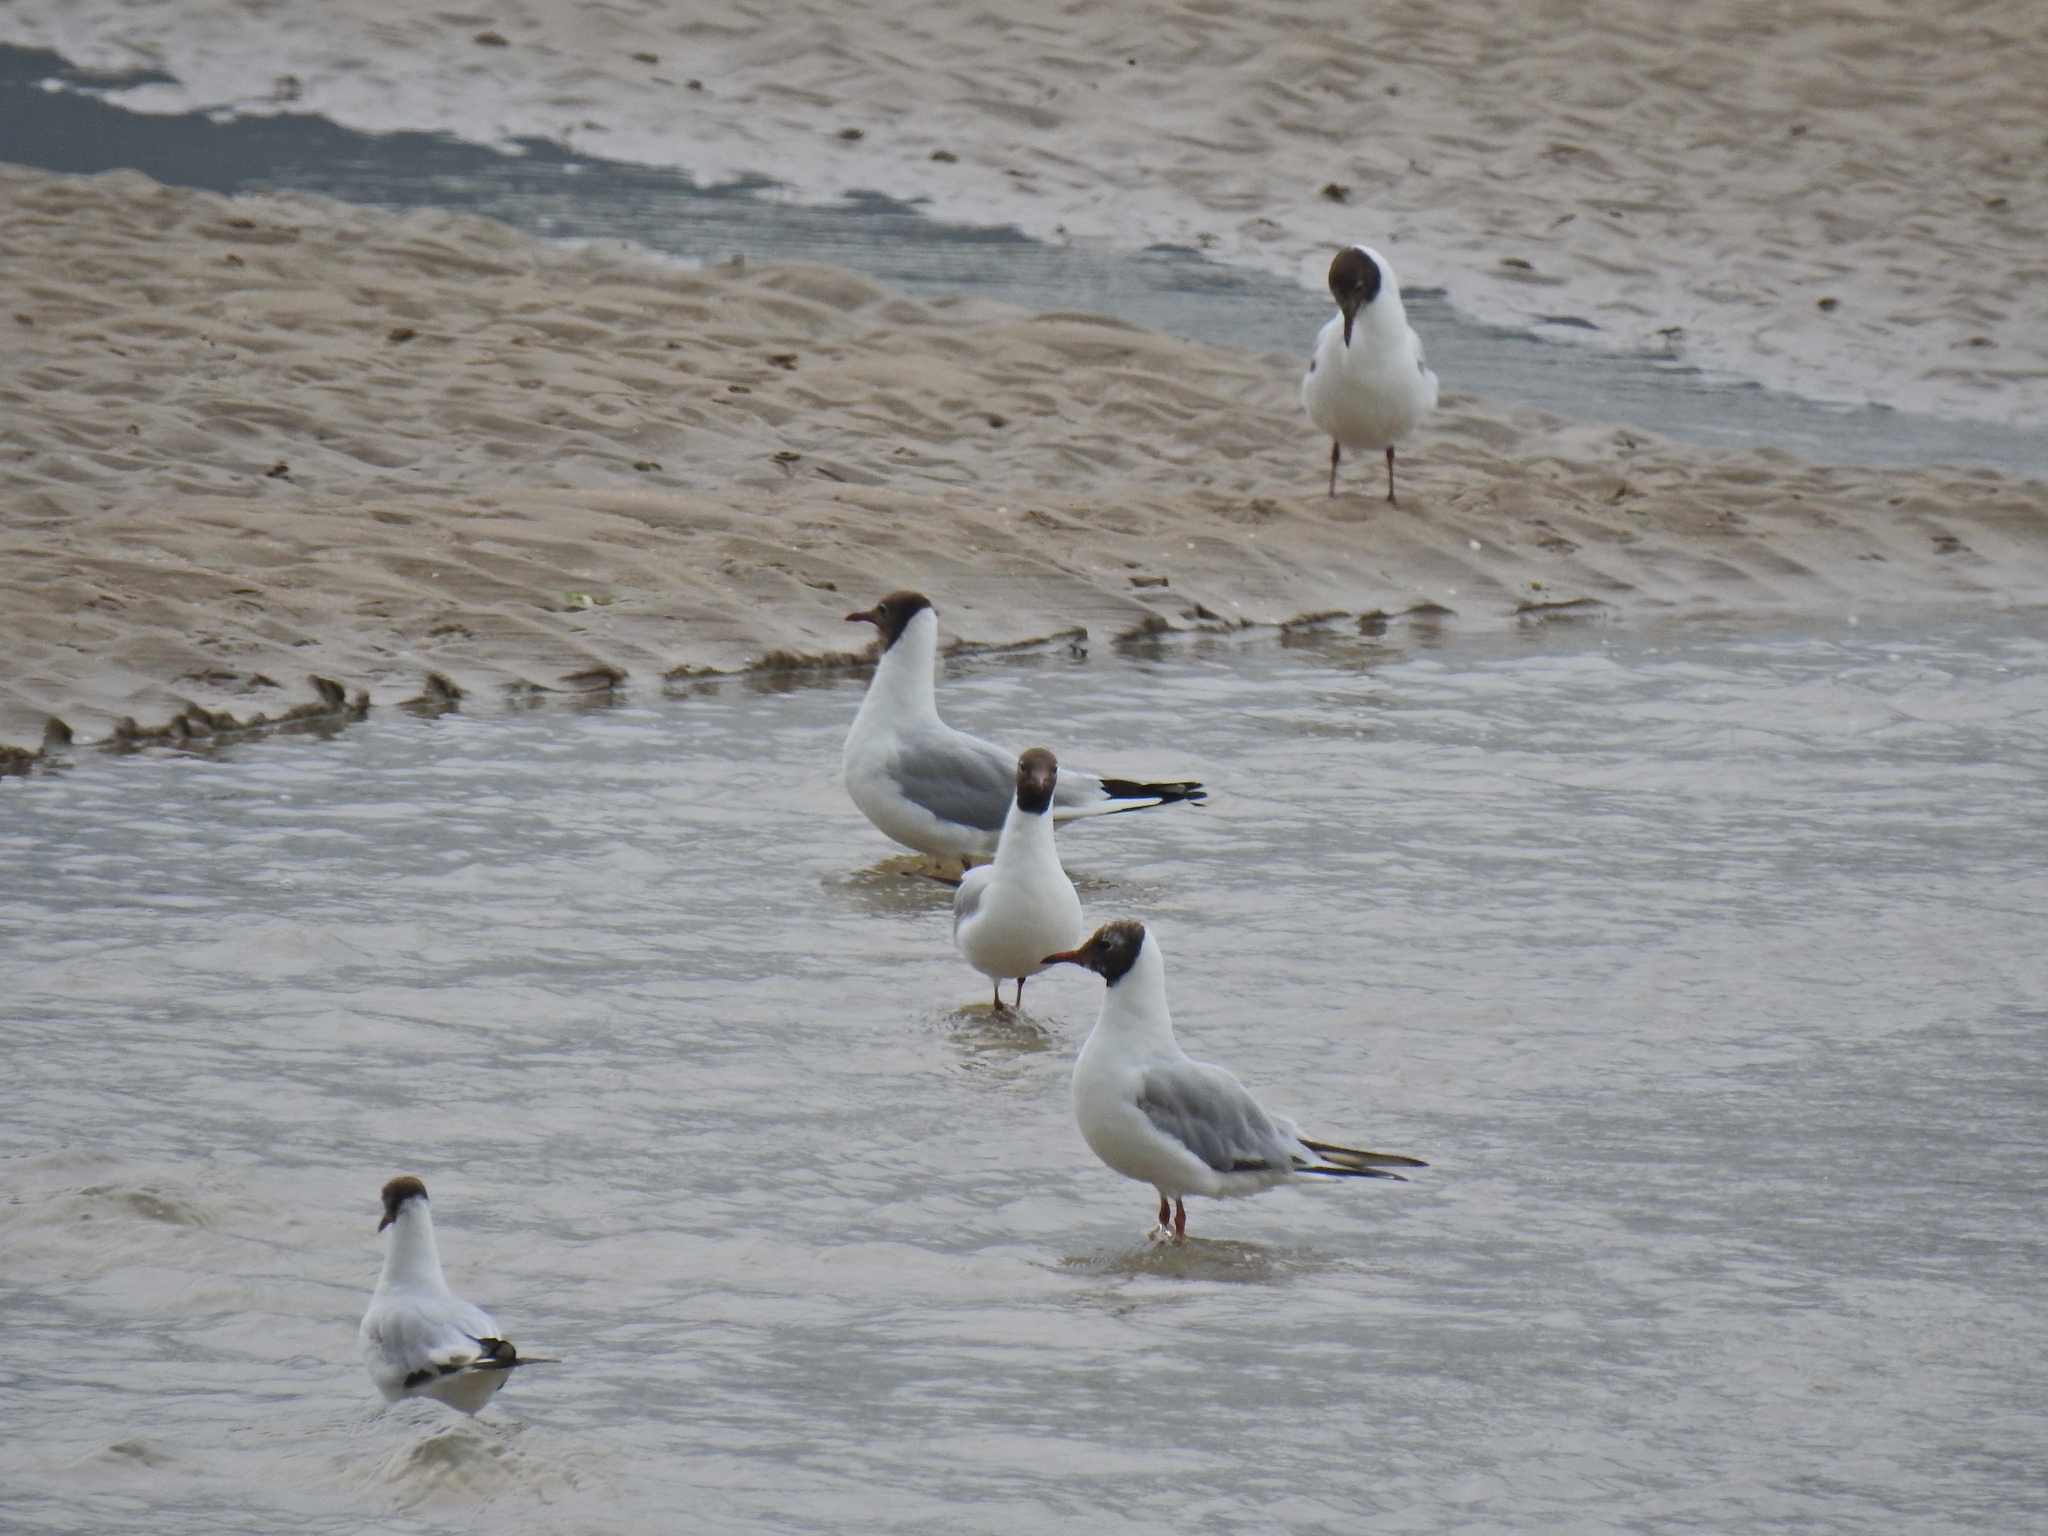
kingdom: Animalia
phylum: Chordata
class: Aves
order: Charadriiformes
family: Laridae
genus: Chroicocephalus
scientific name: Chroicocephalus ridibundus
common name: Black-headed gull
